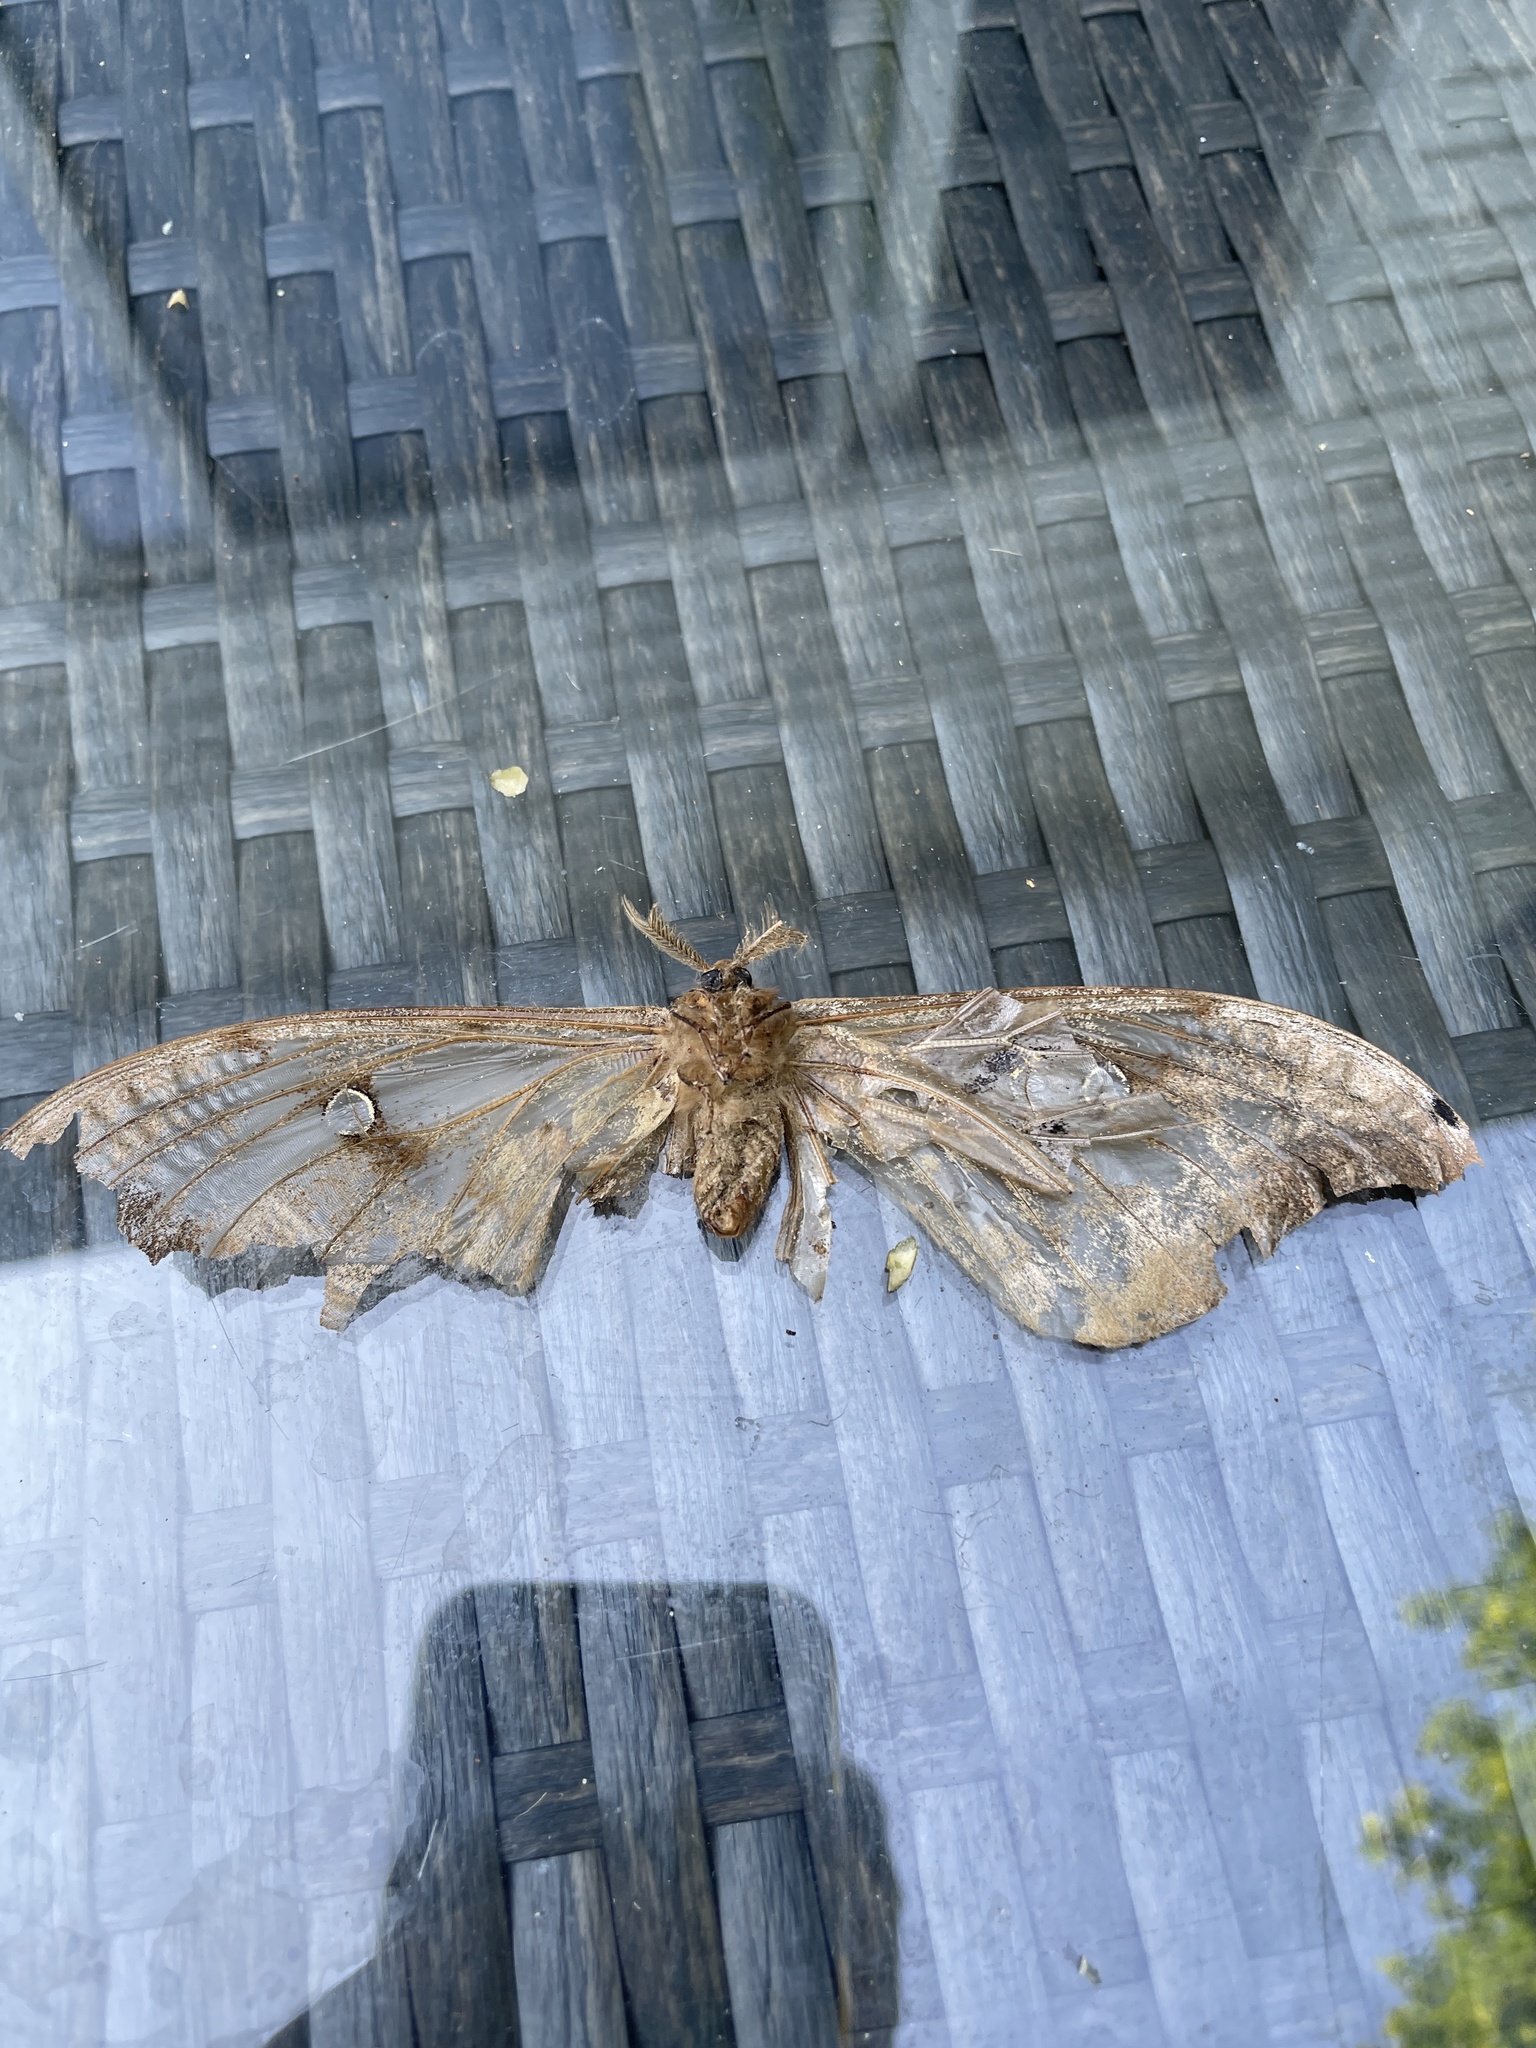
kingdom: Animalia
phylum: Arthropoda
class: Insecta
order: Lepidoptera
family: Saturniidae
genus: Antheraea
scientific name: Antheraea polyphemus
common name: Polyphemus moth
